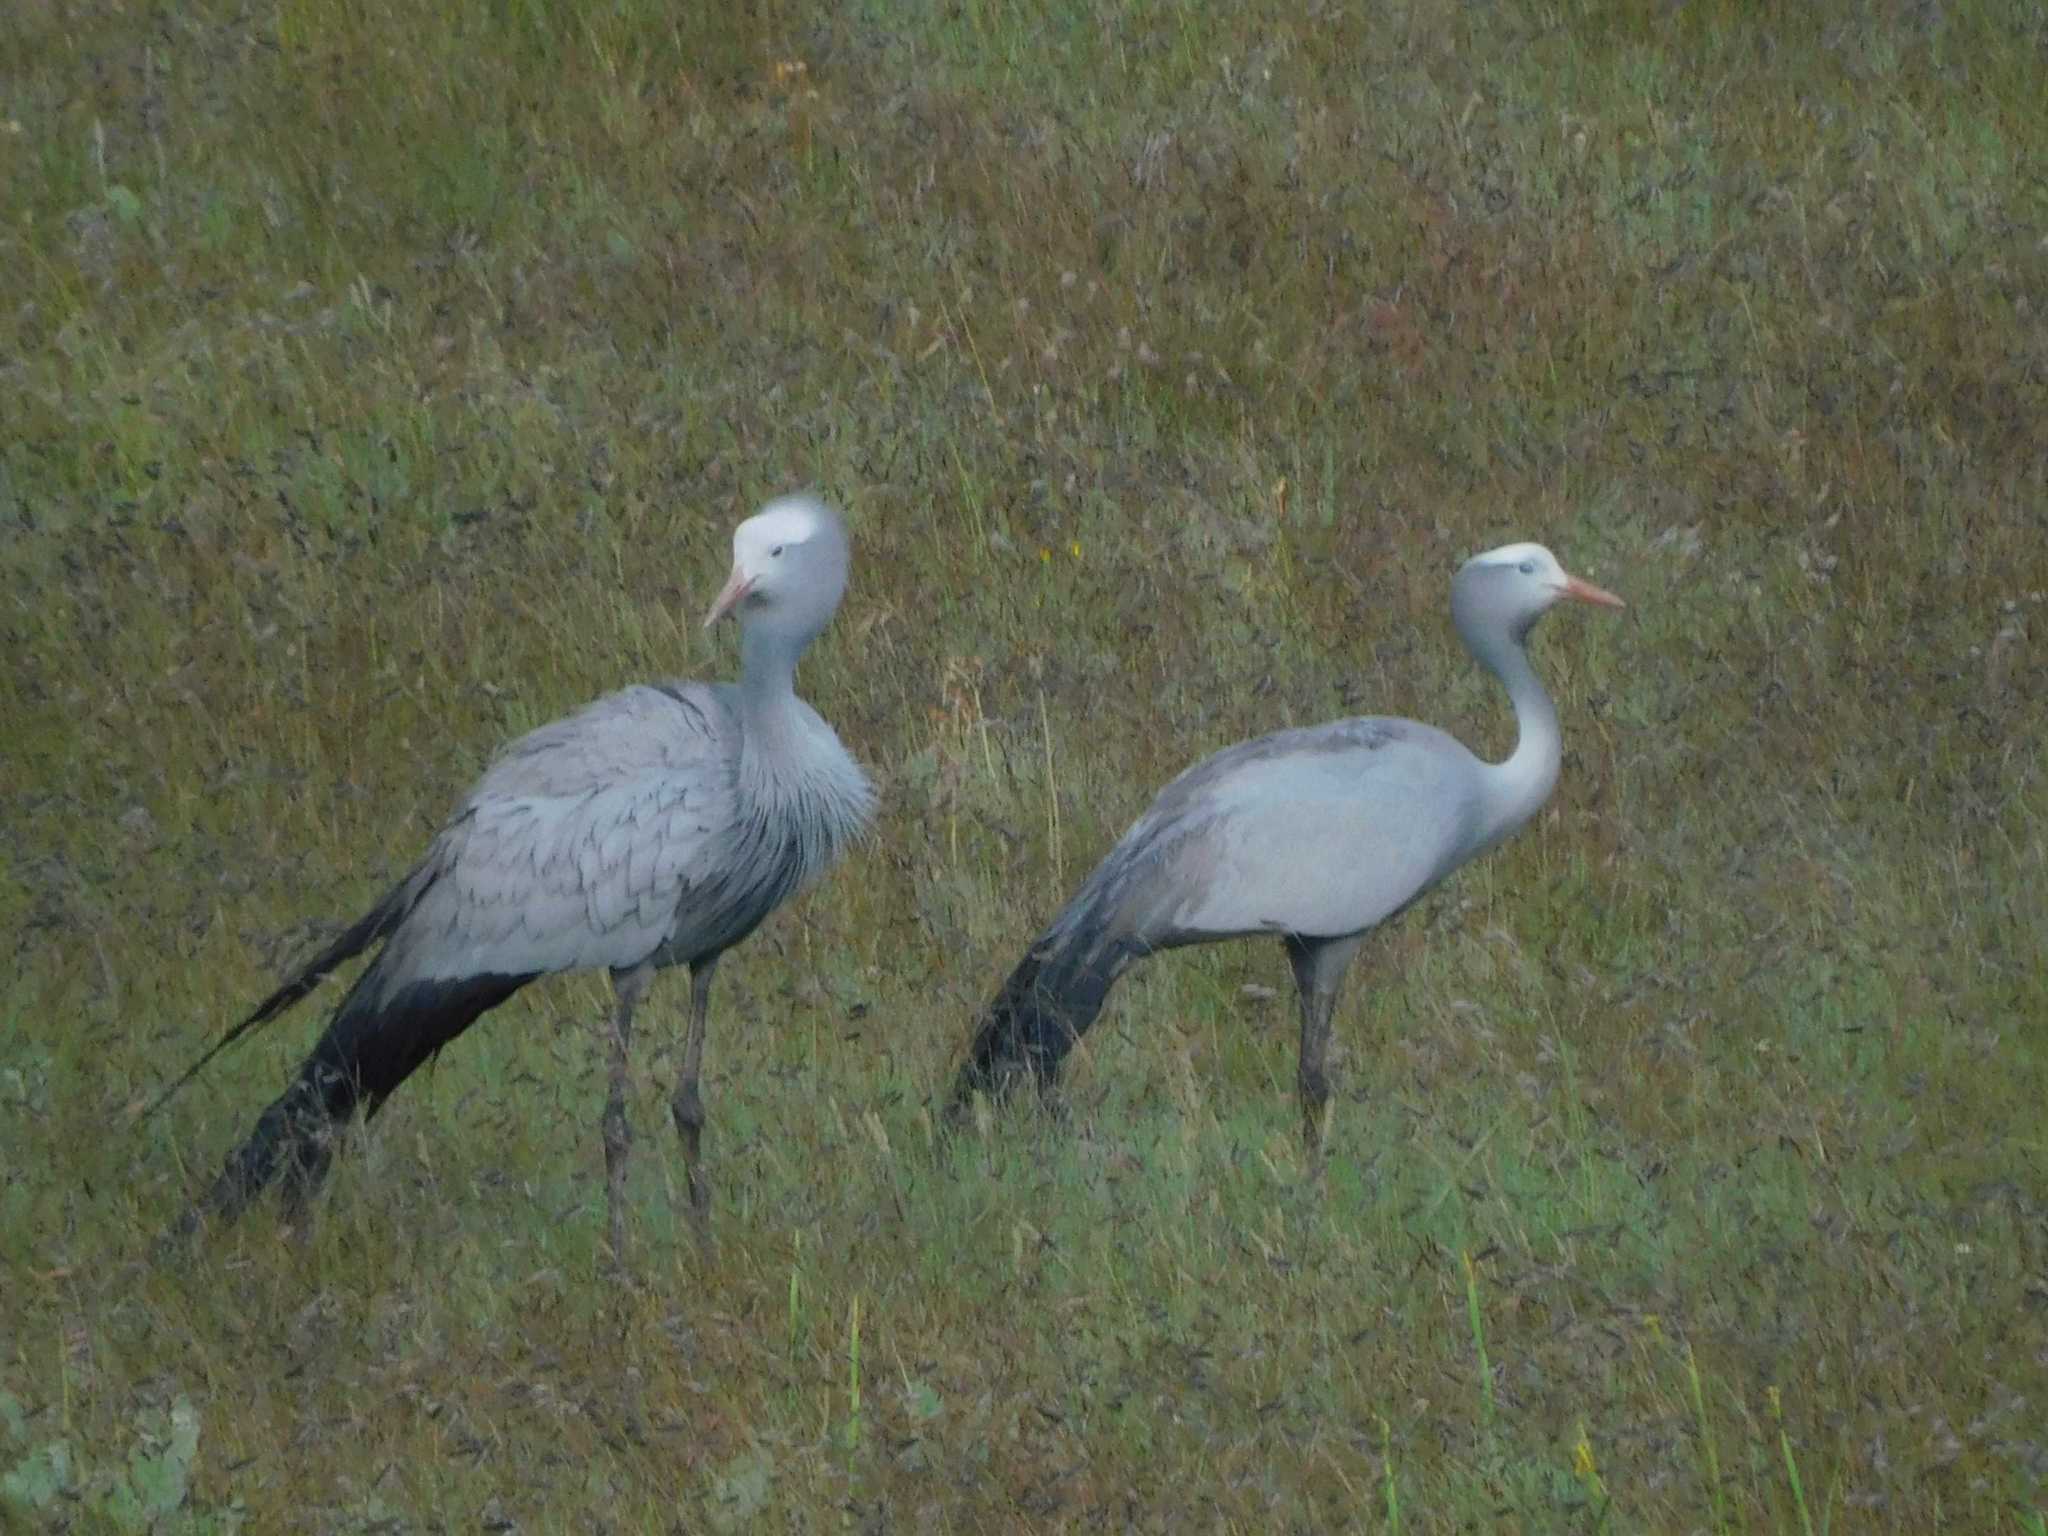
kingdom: Animalia
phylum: Chordata
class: Aves
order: Gruiformes
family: Gruidae
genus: Anthropoides
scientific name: Anthropoides paradiseus
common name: Blue crane
